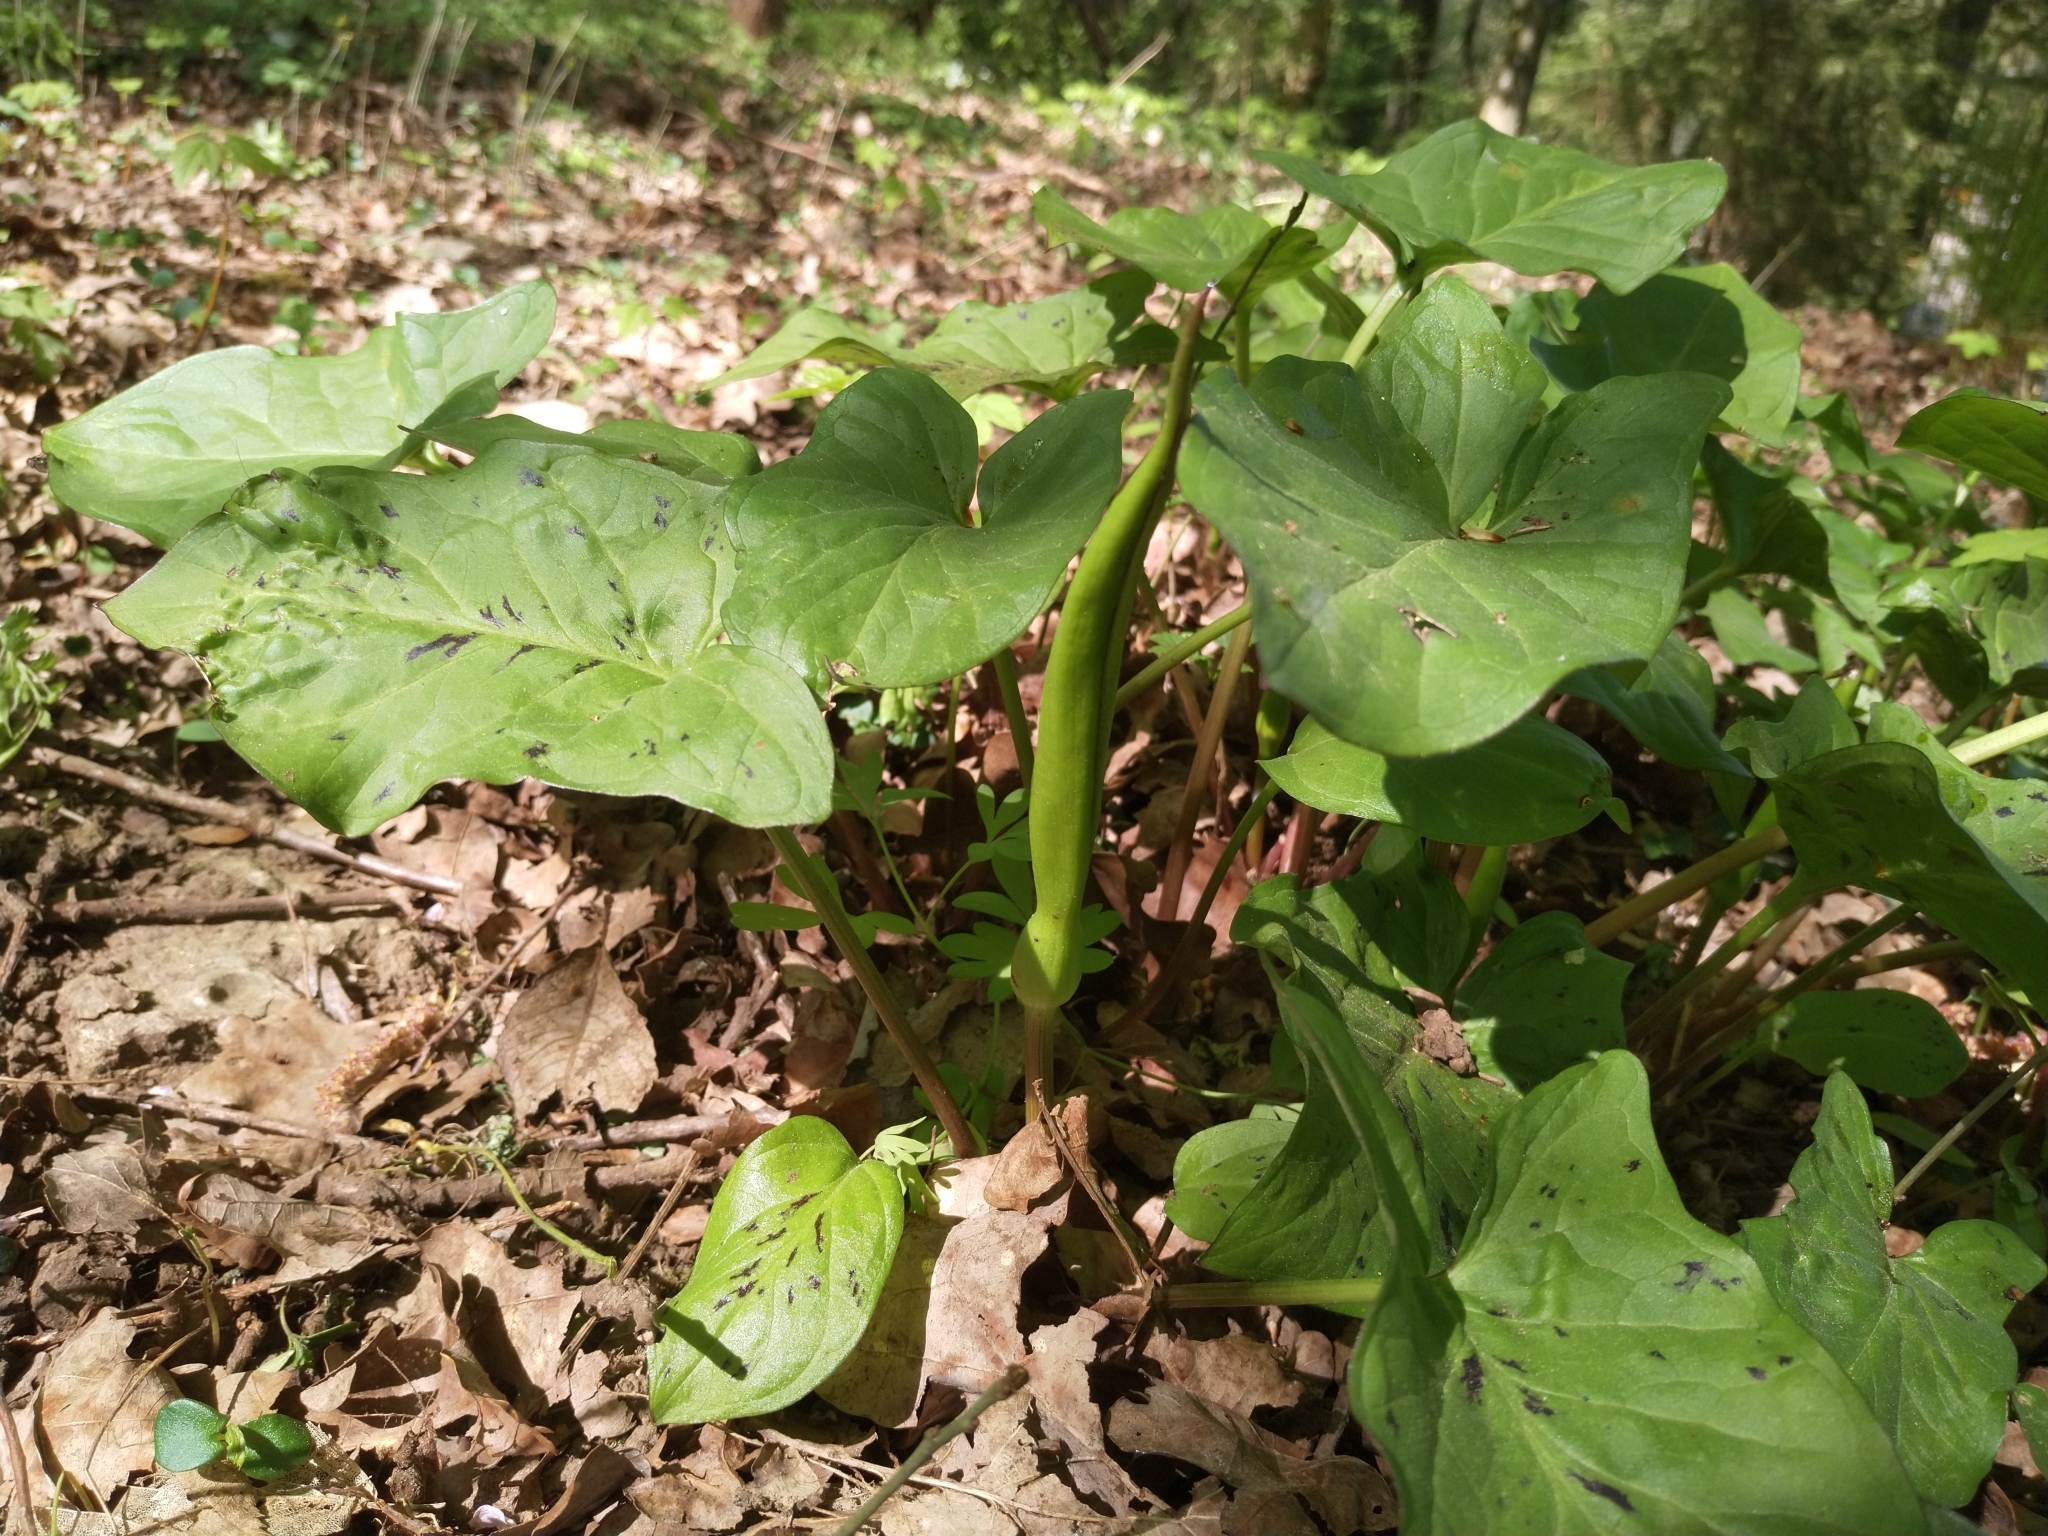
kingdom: Plantae
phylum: Tracheophyta
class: Liliopsida
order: Alismatales
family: Araceae
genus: Arum
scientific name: Arum maculatum
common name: Lords-and-ladies
